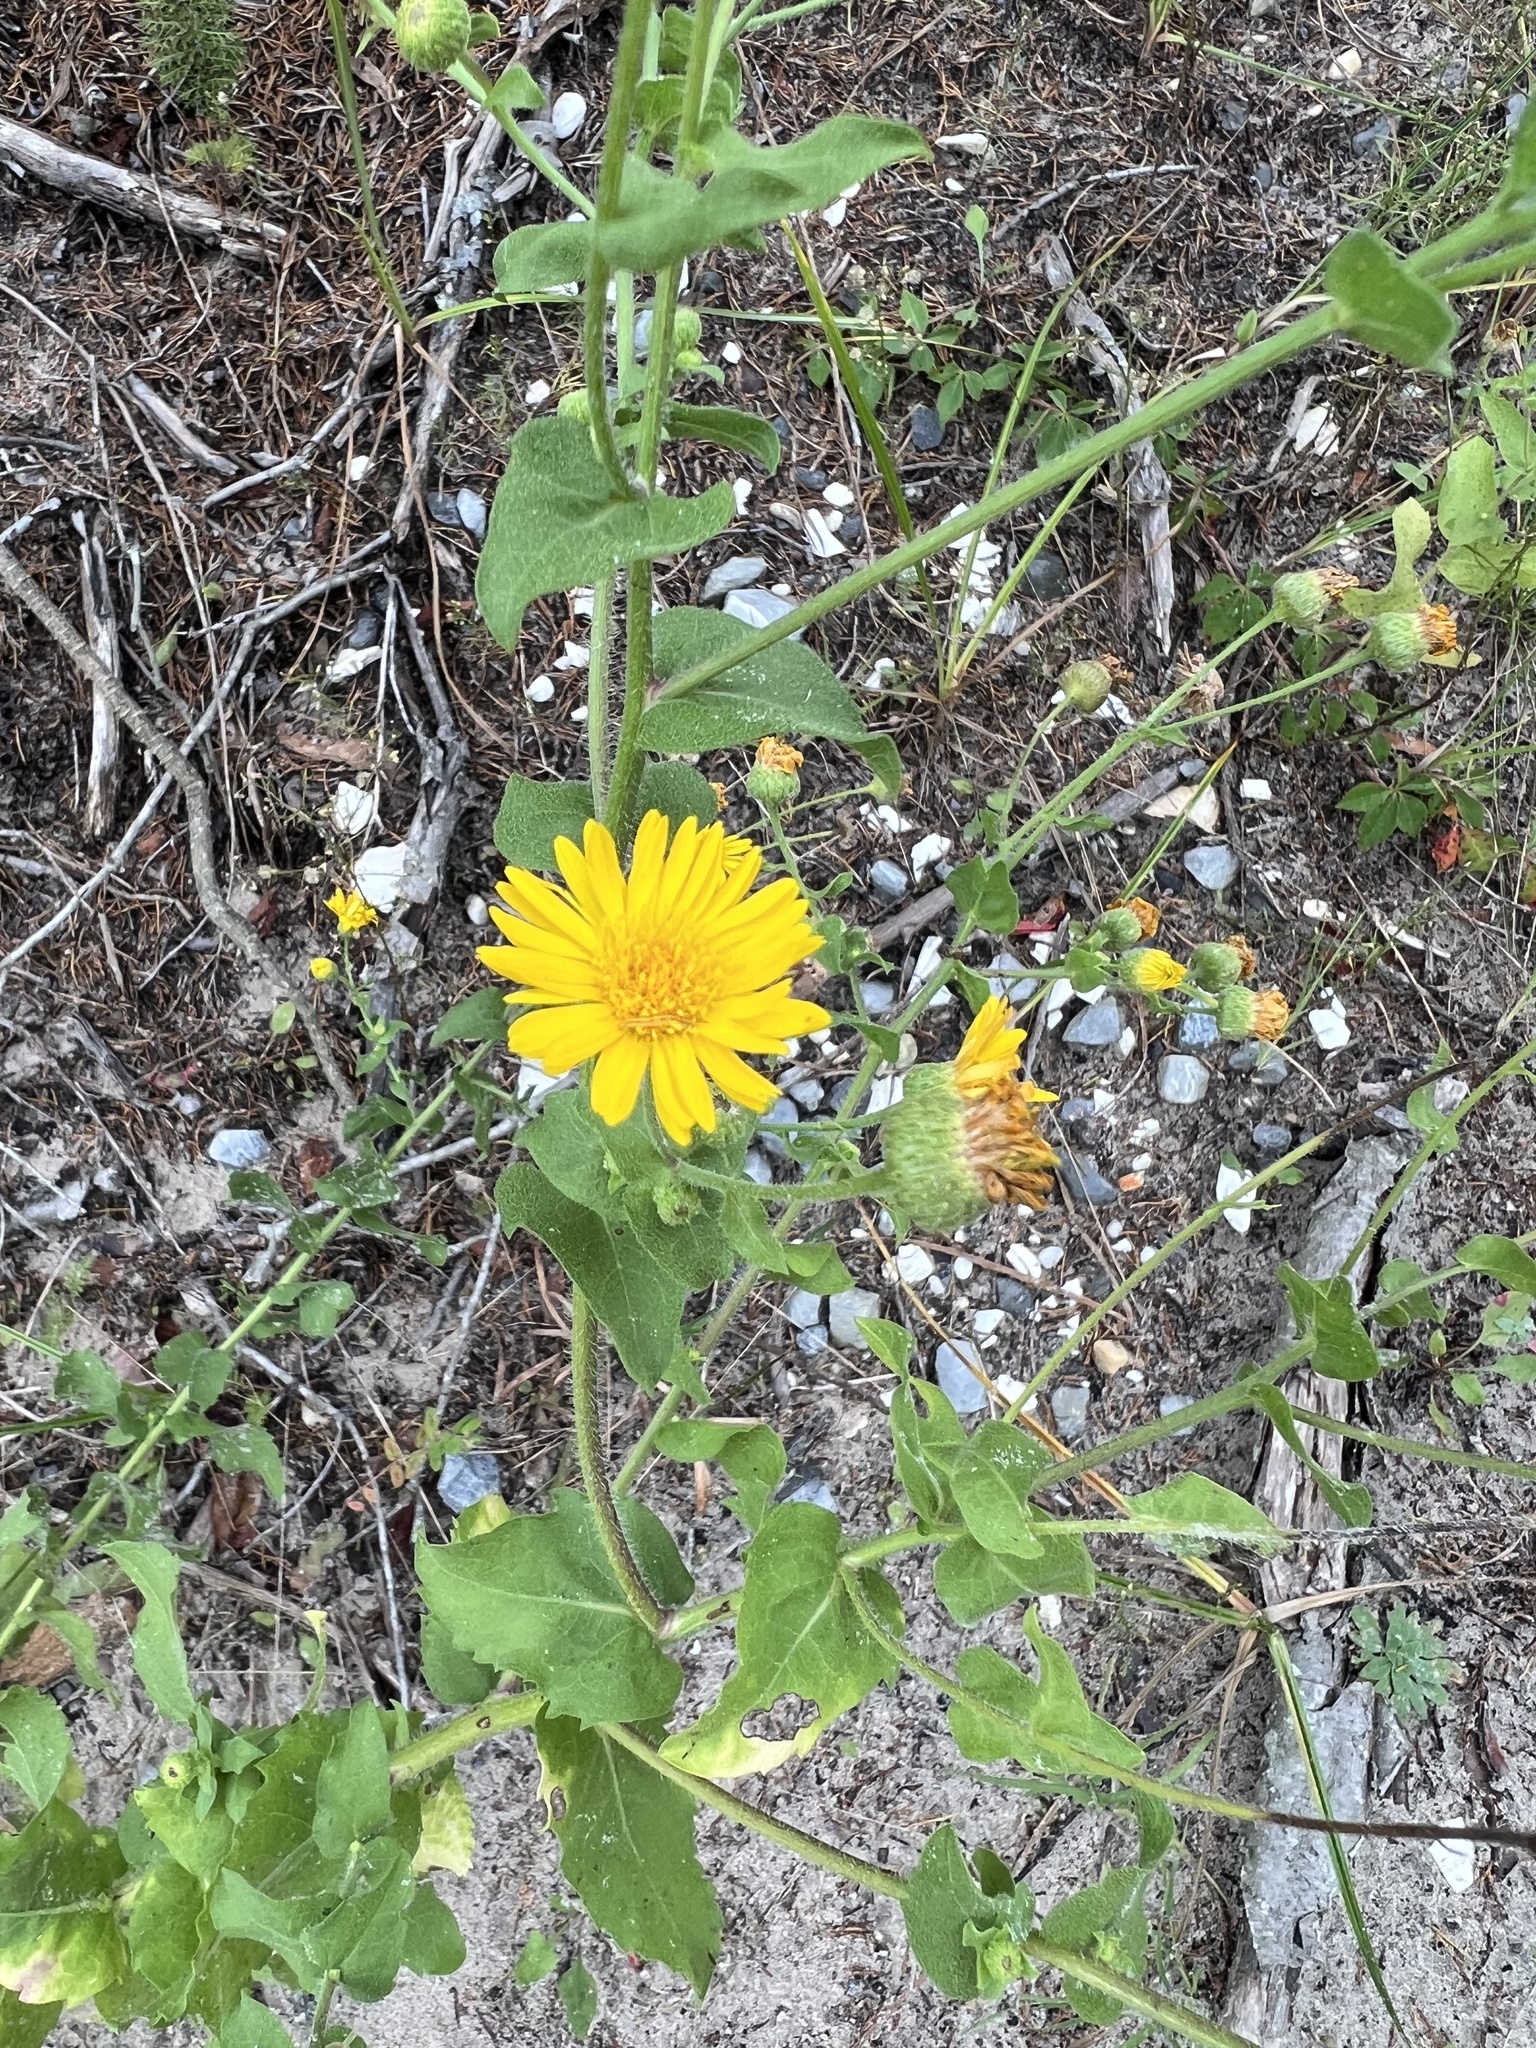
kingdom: Plantae
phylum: Tracheophyta
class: Magnoliopsida
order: Asterales
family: Asteraceae
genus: Heterotheca
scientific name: Heterotheca subaxillaris
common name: Camphorweed
